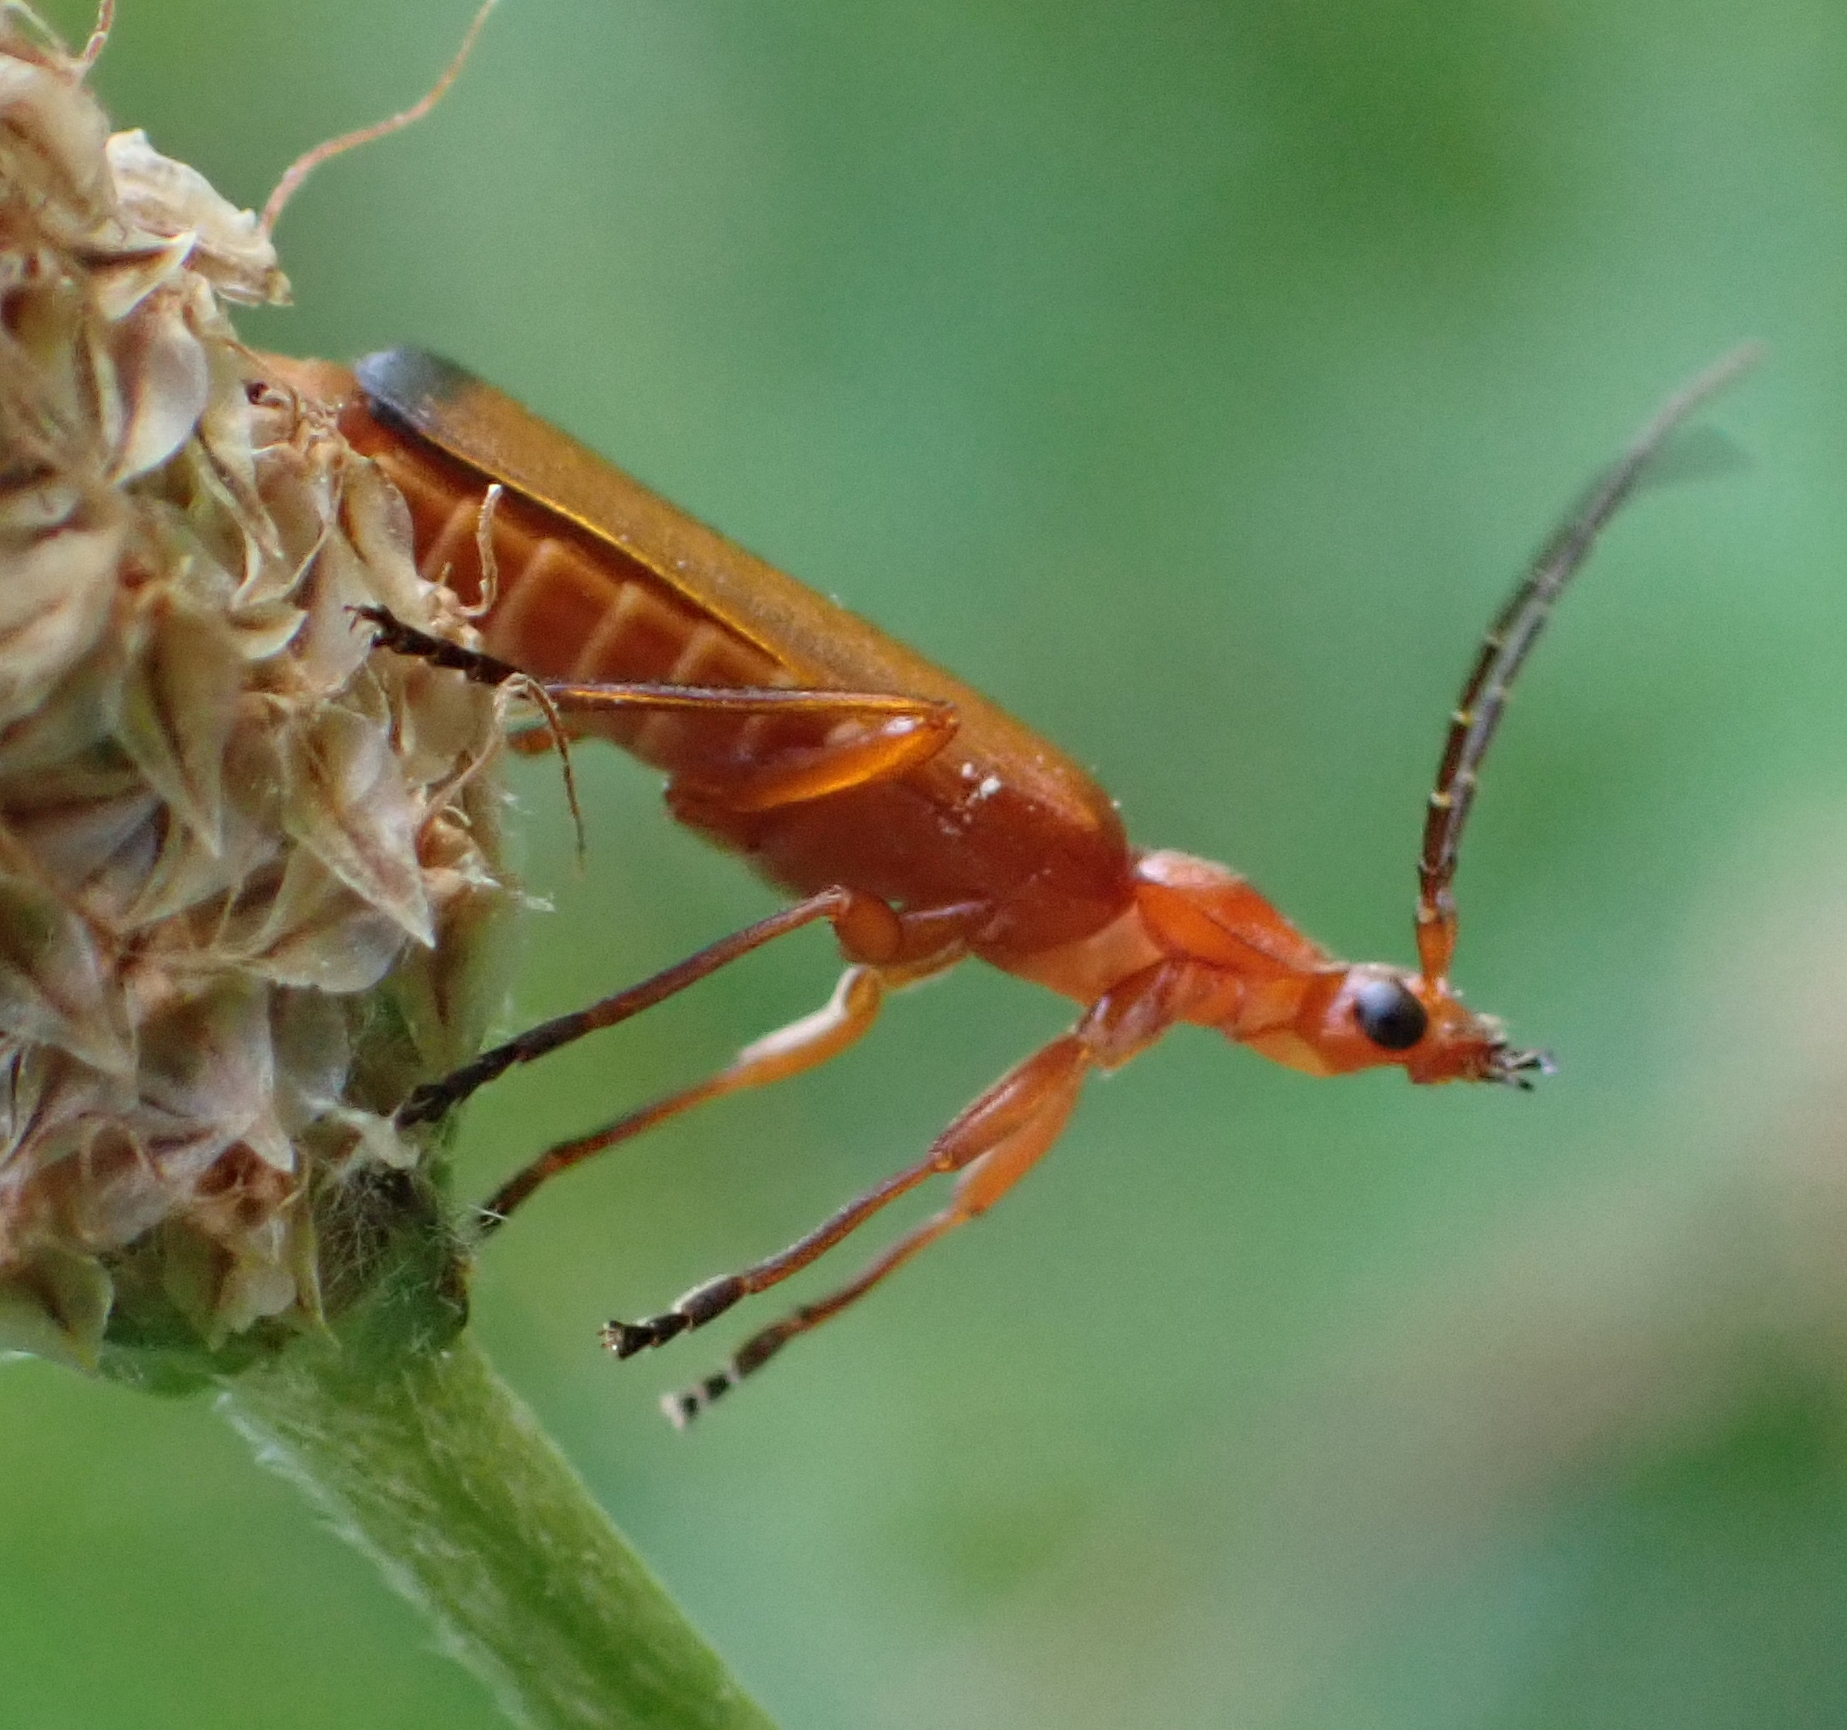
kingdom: Animalia
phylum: Arthropoda
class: Insecta
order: Coleoptera
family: Cantharidae
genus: Rhagonycha
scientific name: Rhagonycha fulva
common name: Common red soldier beetle
